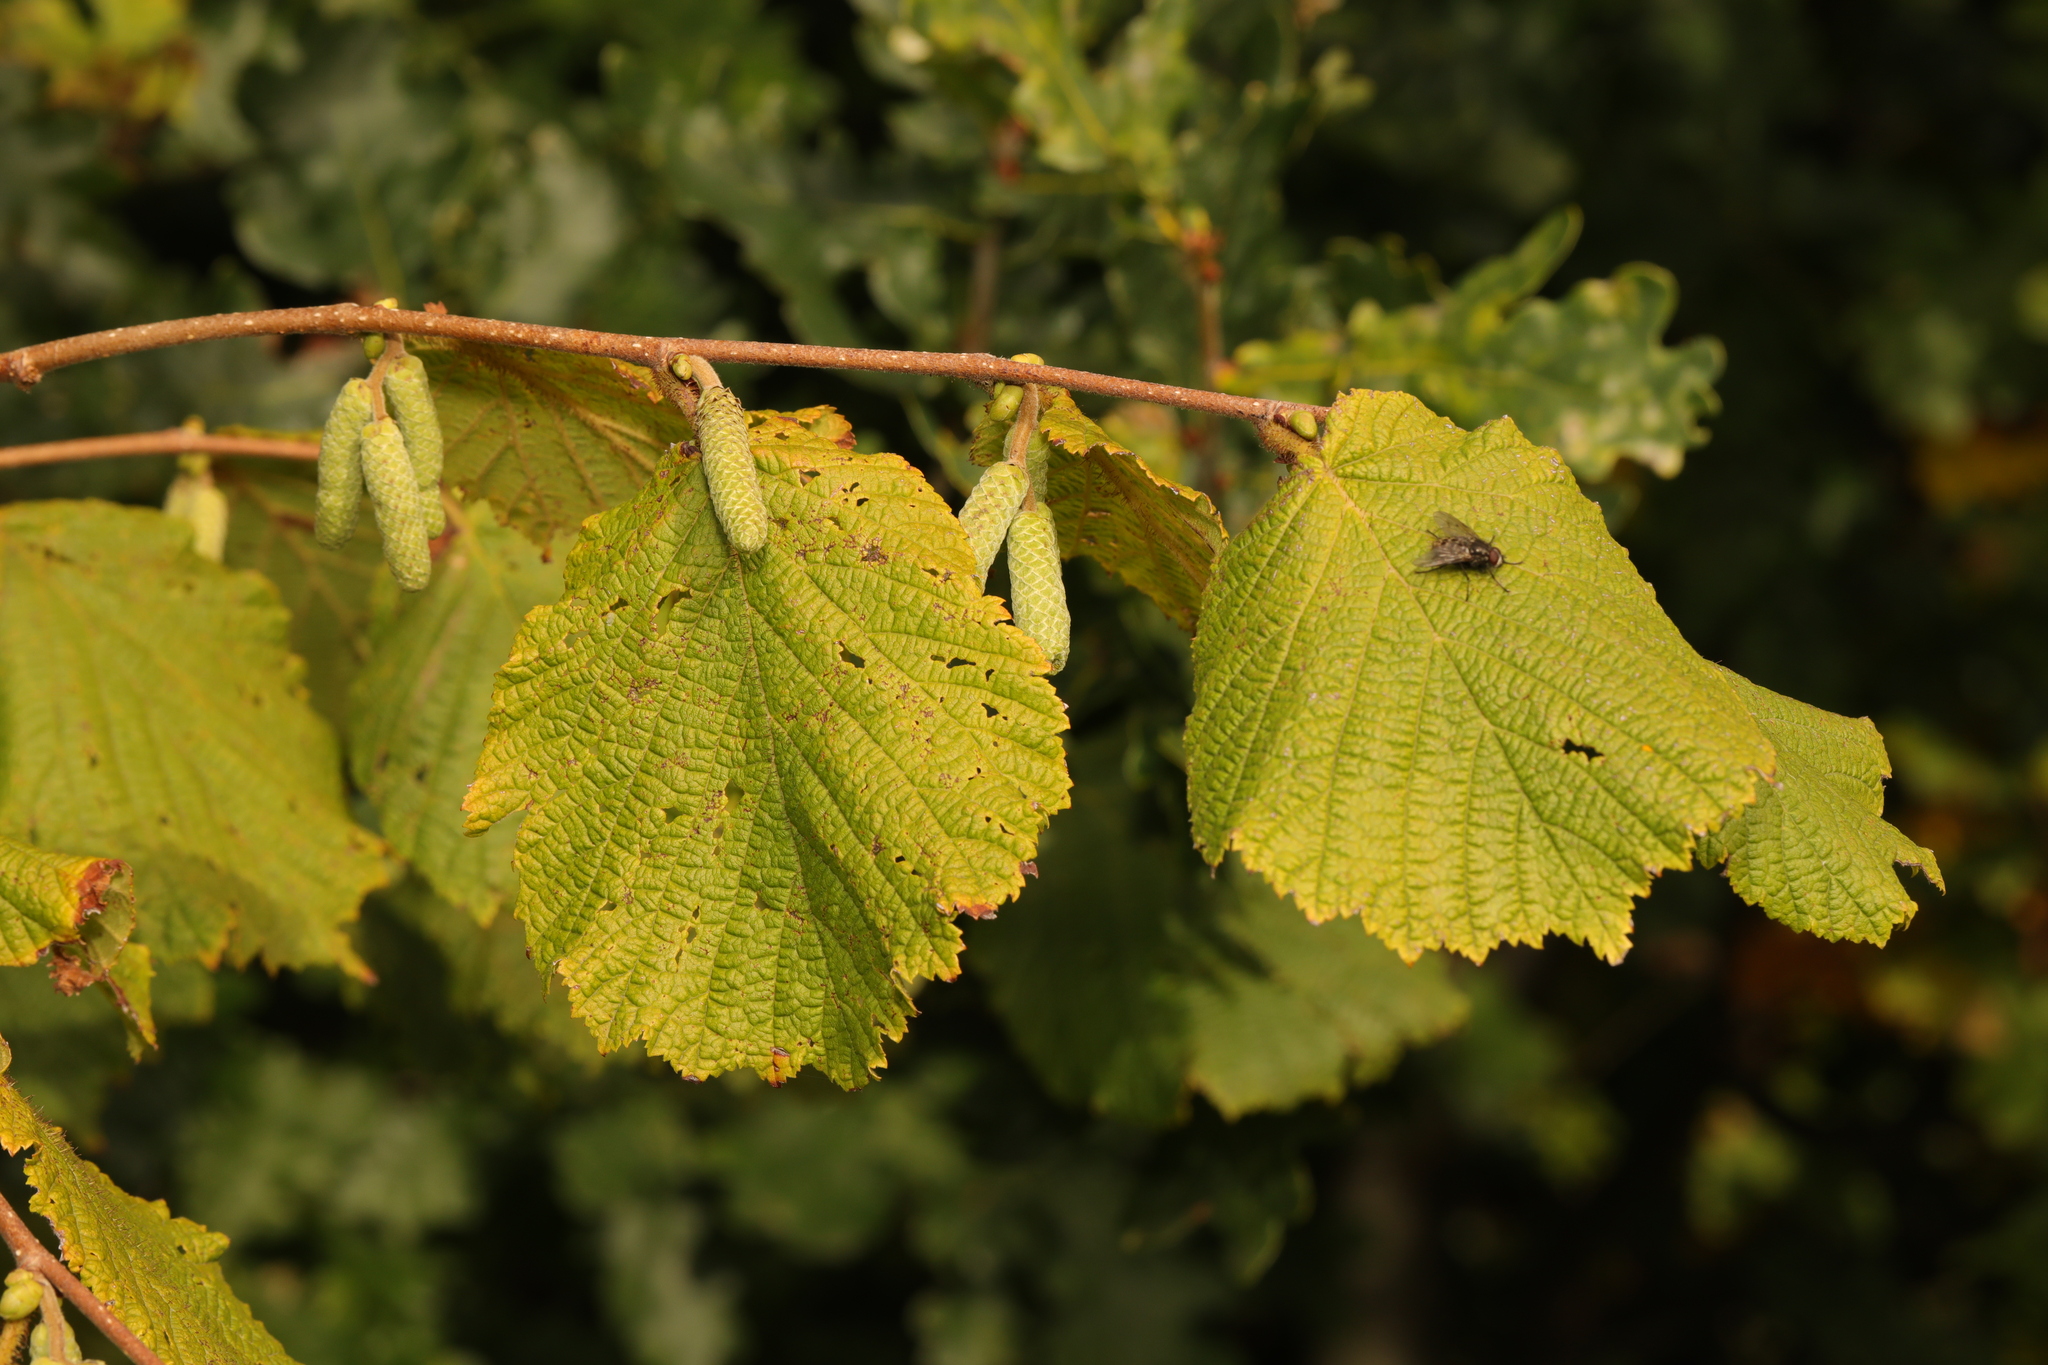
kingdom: Plantae
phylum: Tracheophyta
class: Magnoliopsida
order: Fagales
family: Betulaceae
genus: Corylus
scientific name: Corylus avellana
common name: European hazel
